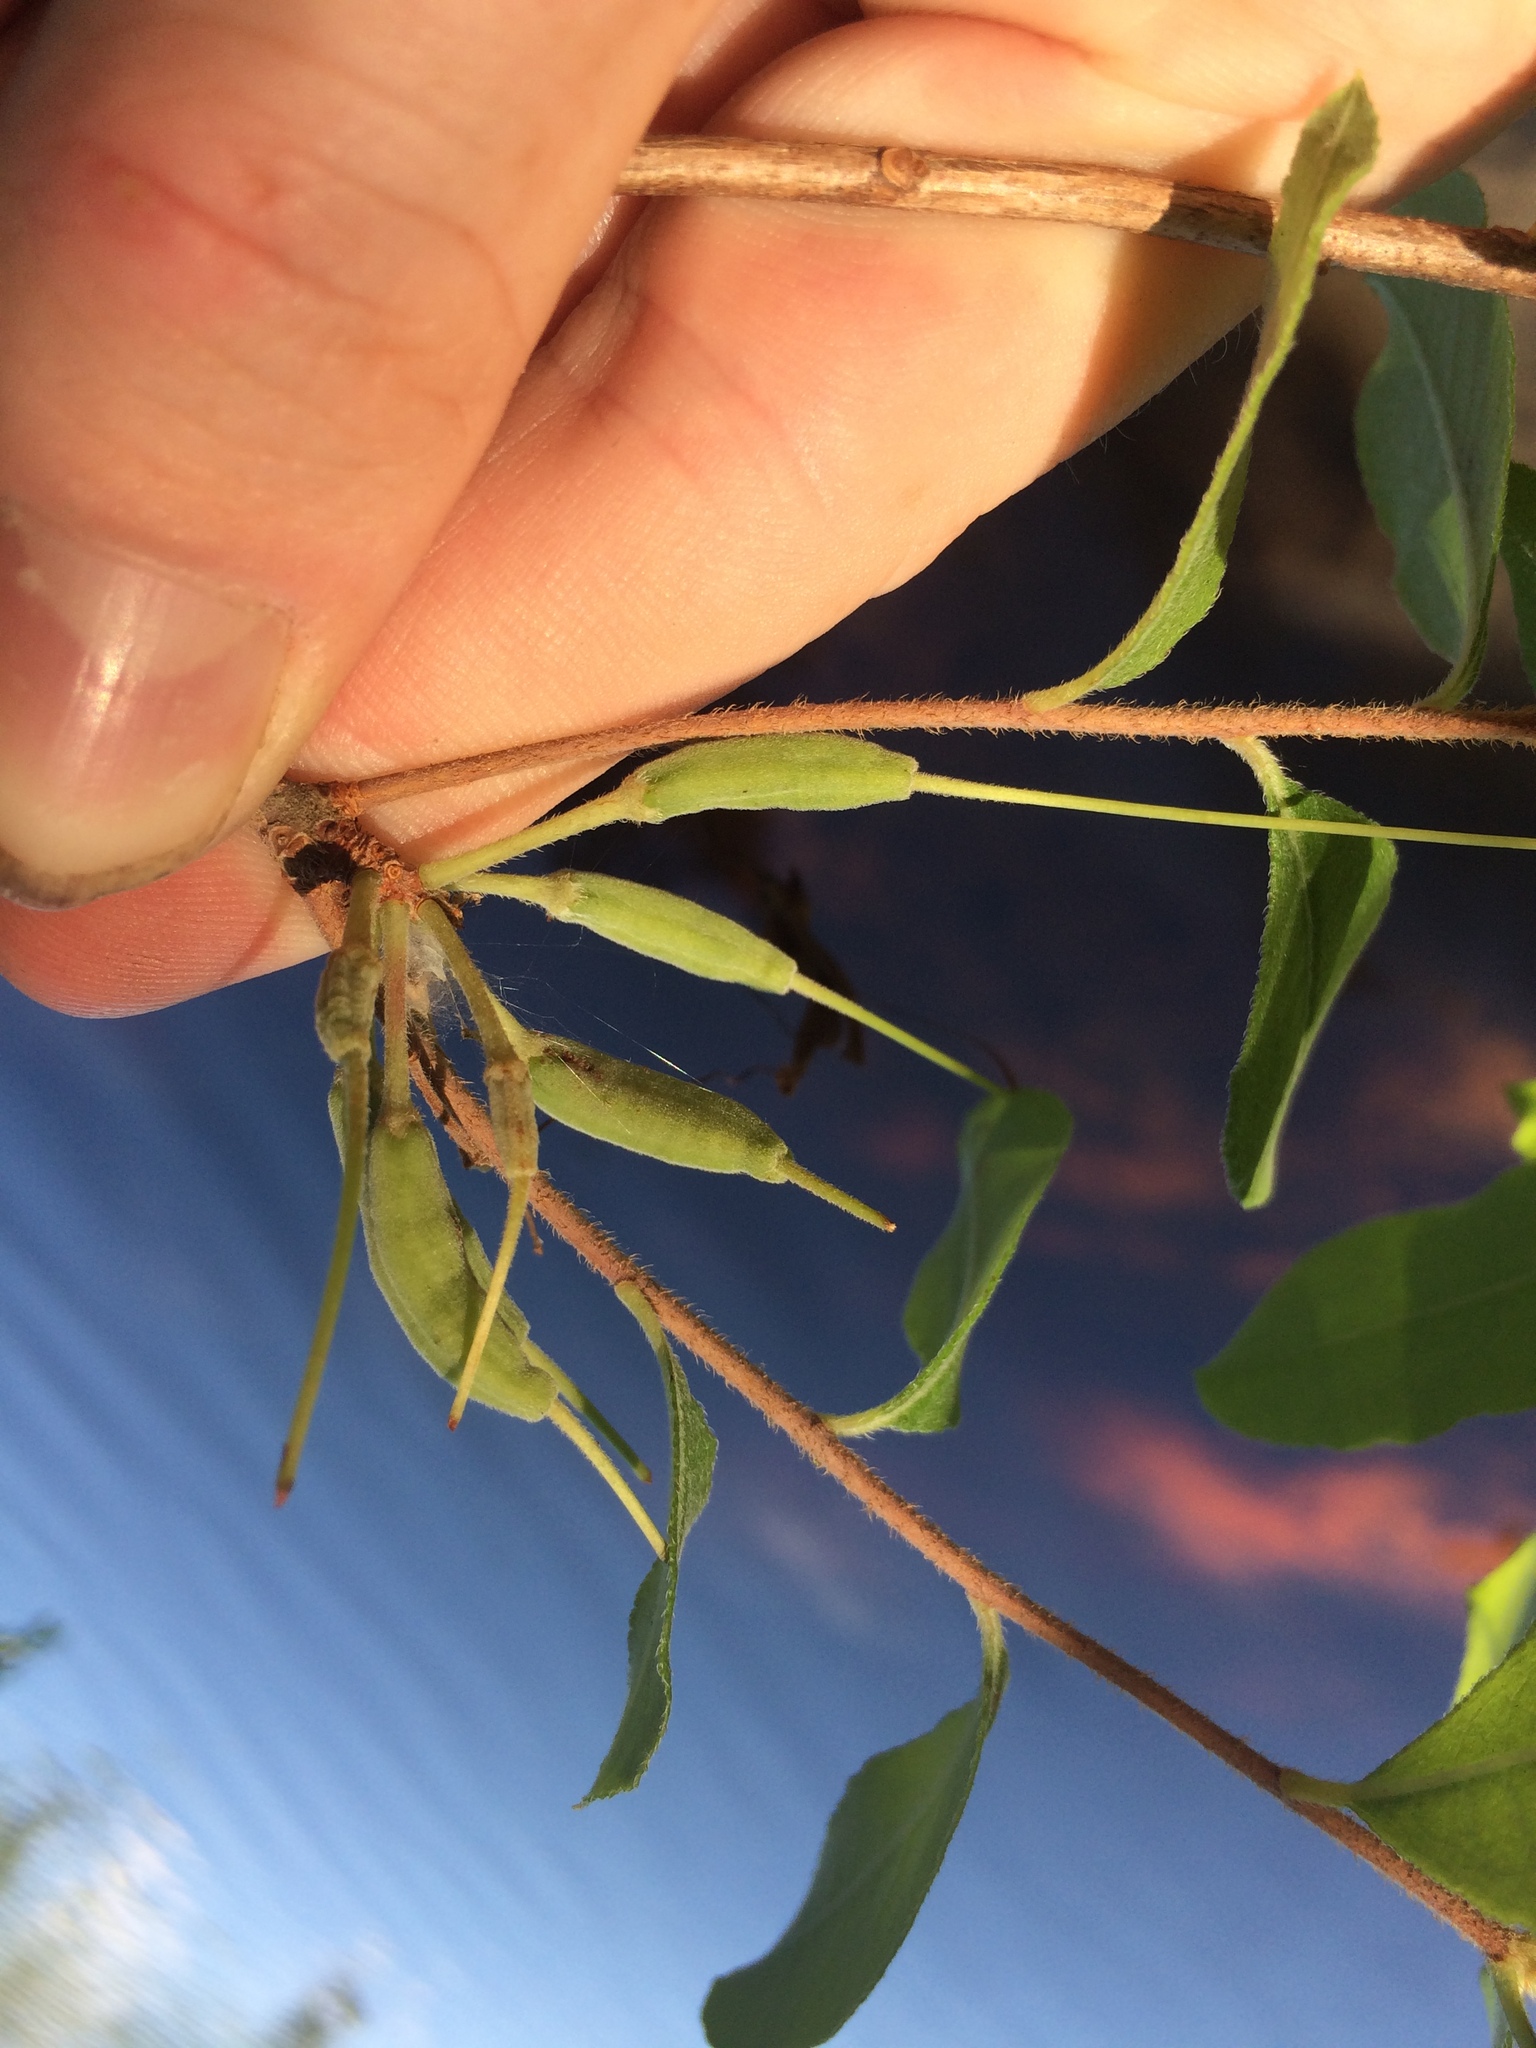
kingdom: Plantae
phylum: Tracheophyta
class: Magnoliopsida
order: Ericales
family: Ericaceae
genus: Rhododendron
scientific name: Rhododendron canescens
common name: Mountain azalea
